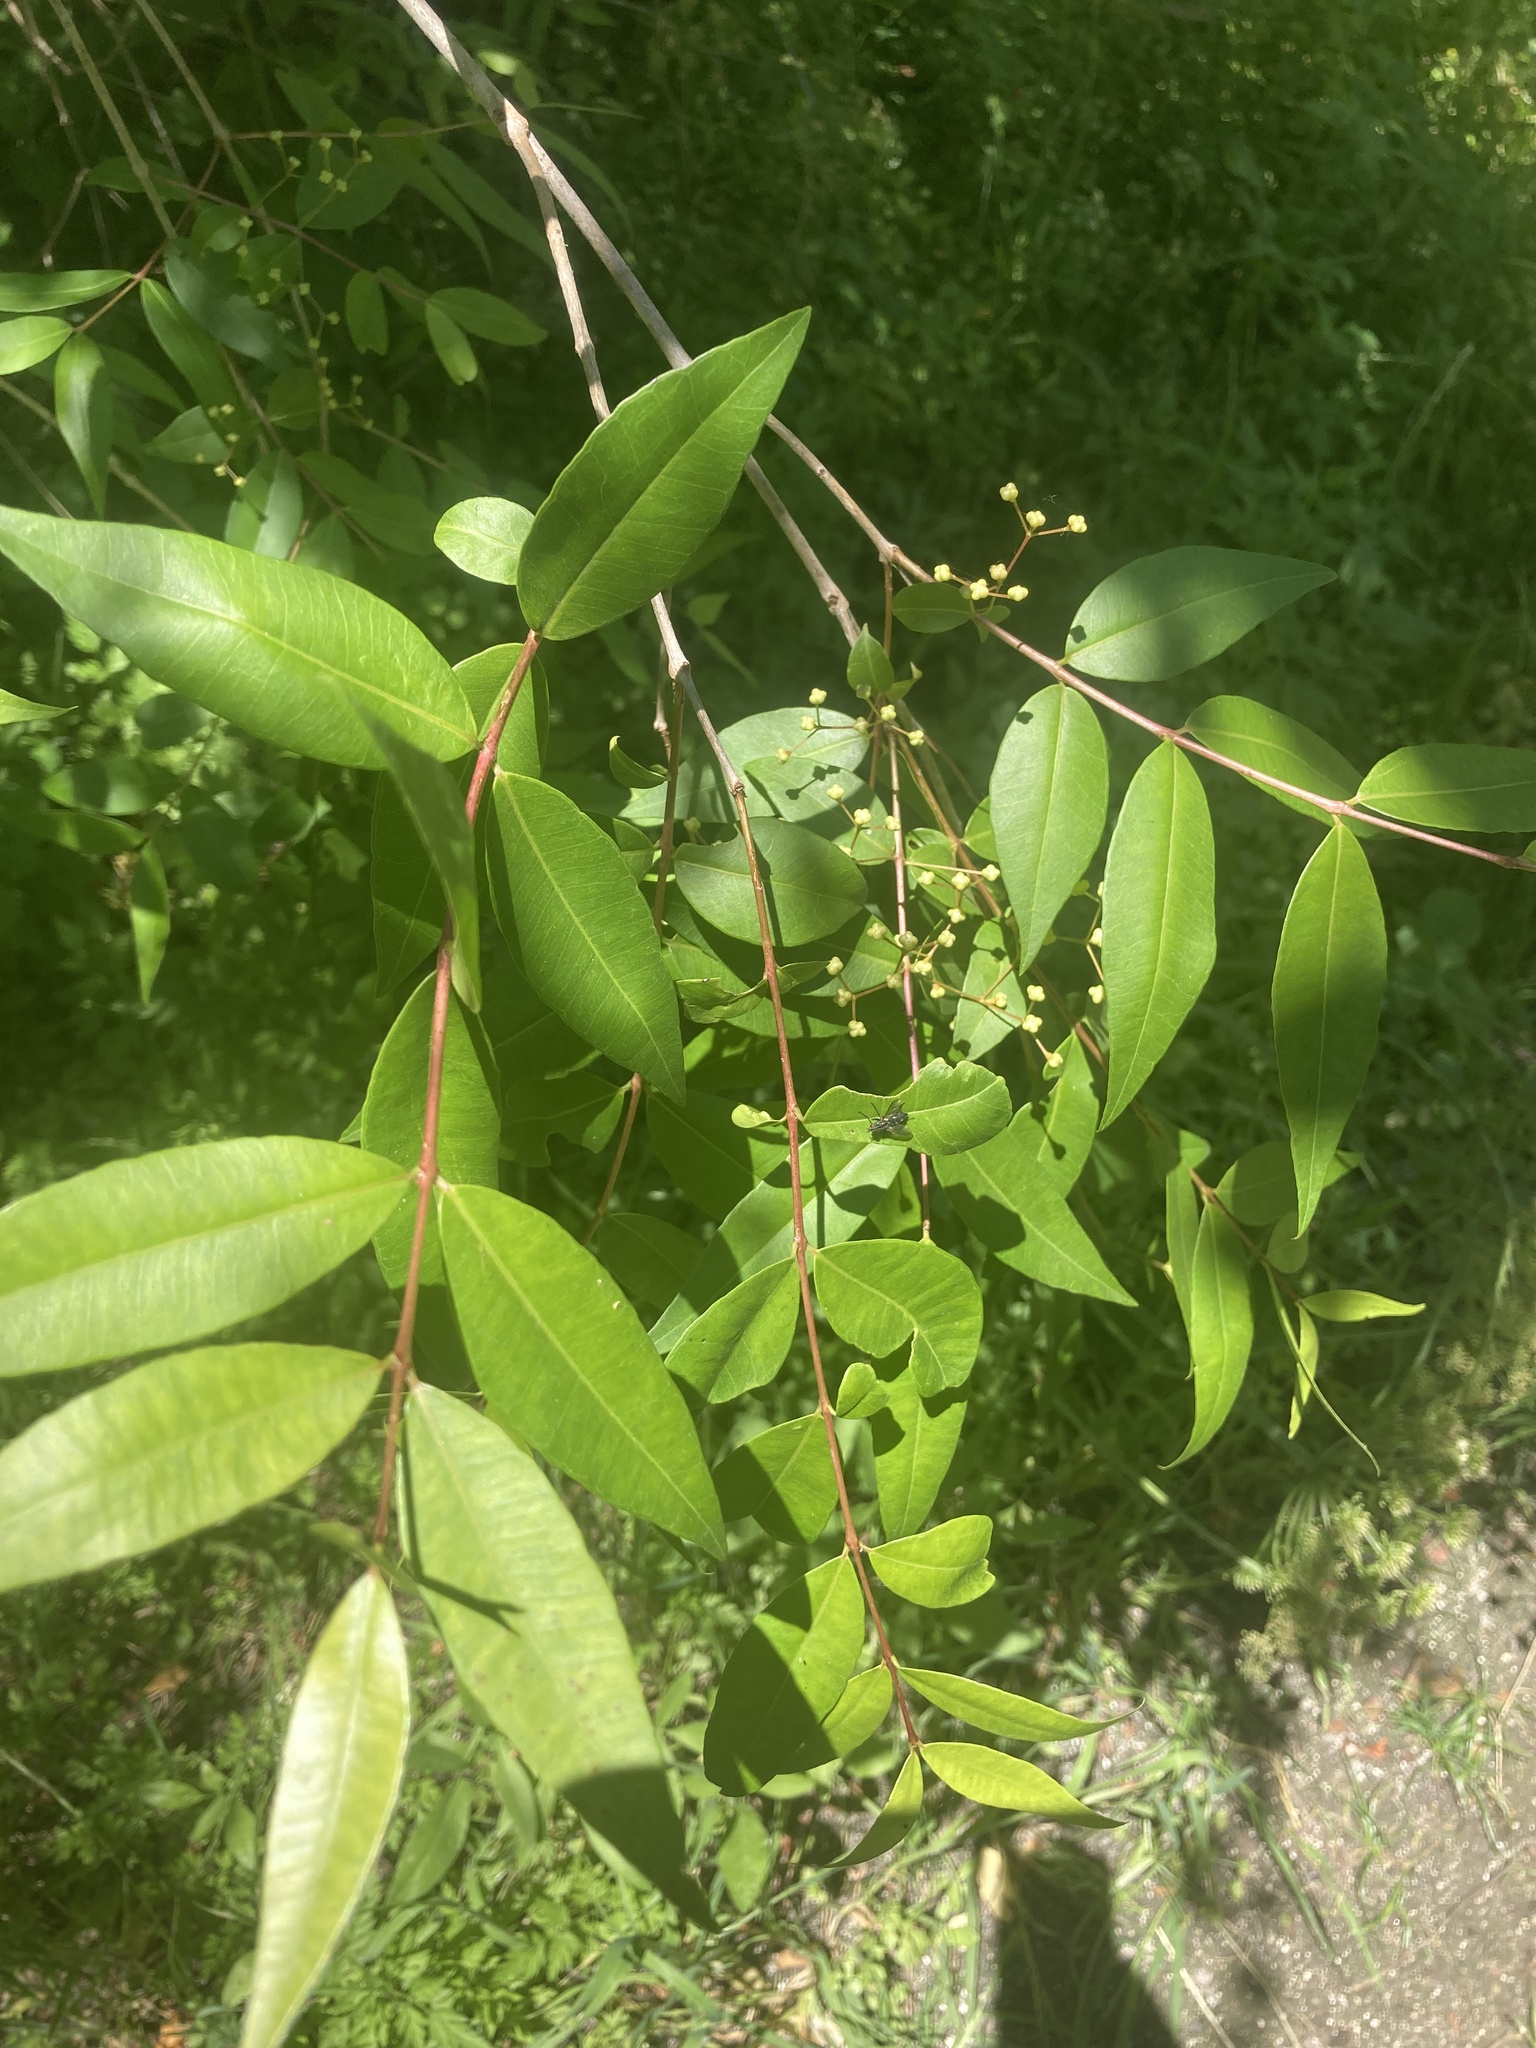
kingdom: Plantae
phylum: Tracheophyta
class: Magnoliopsida
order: Myrtales
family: Myrtaceae
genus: Blepharocalyx
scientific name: Blepharocalyx salicifolius
